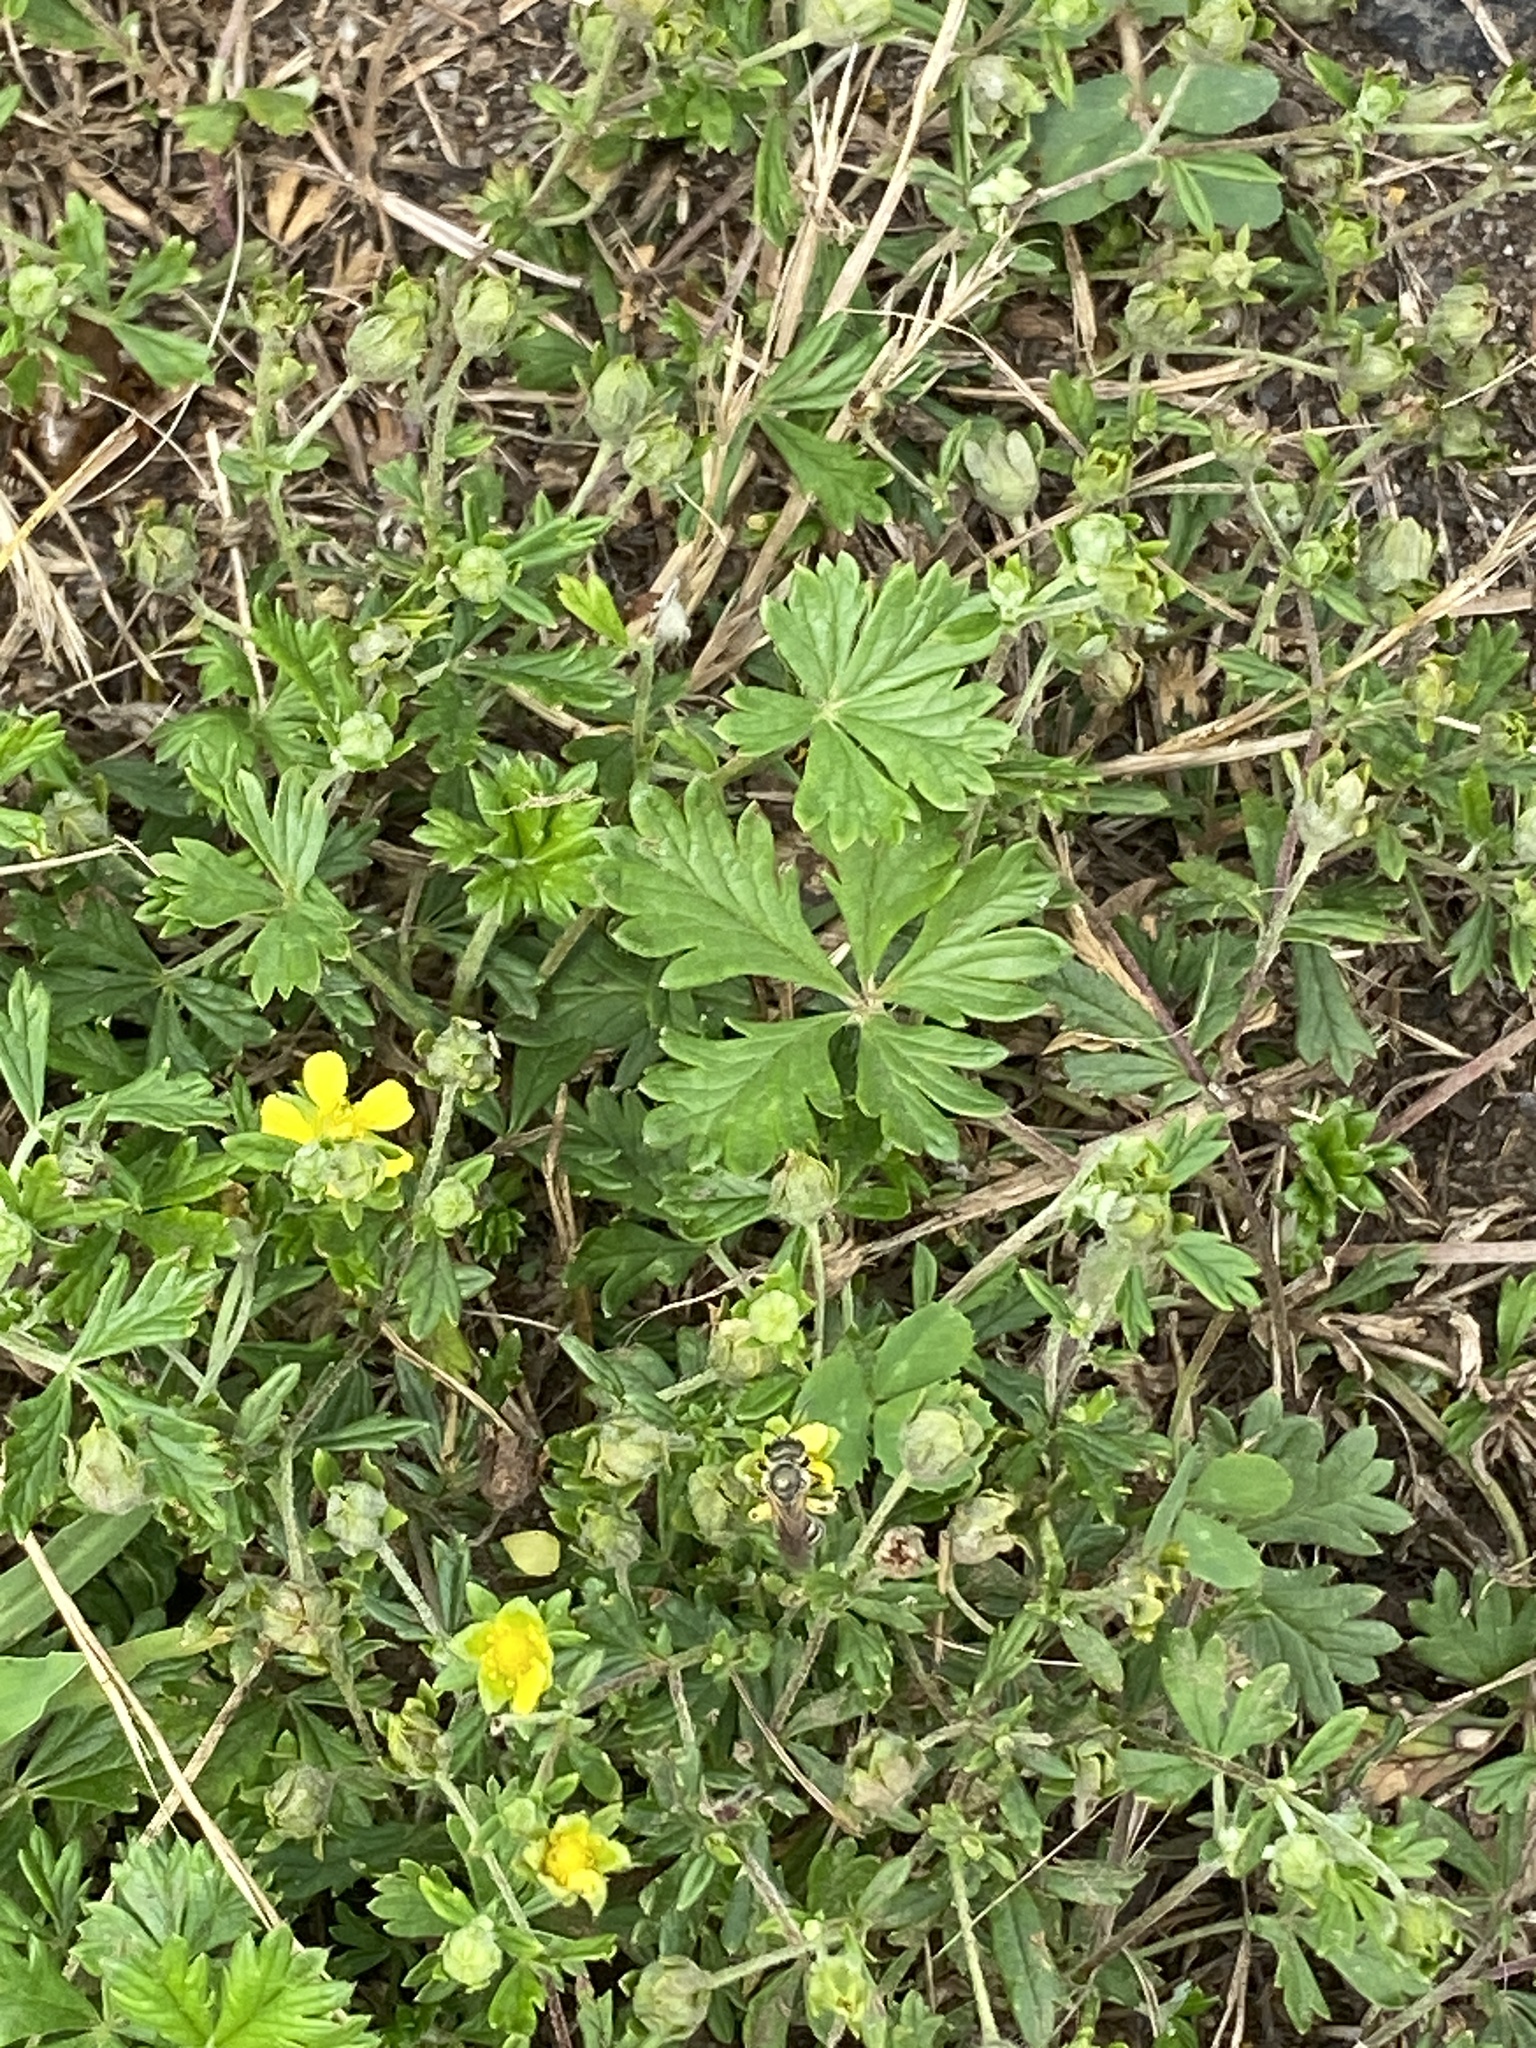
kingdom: Plantae
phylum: Tracheophyta
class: Magnoliopsida
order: Rosales
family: Rosaceae
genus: Potentilla
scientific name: Potentilla argentea
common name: Hoary cinquefoil
